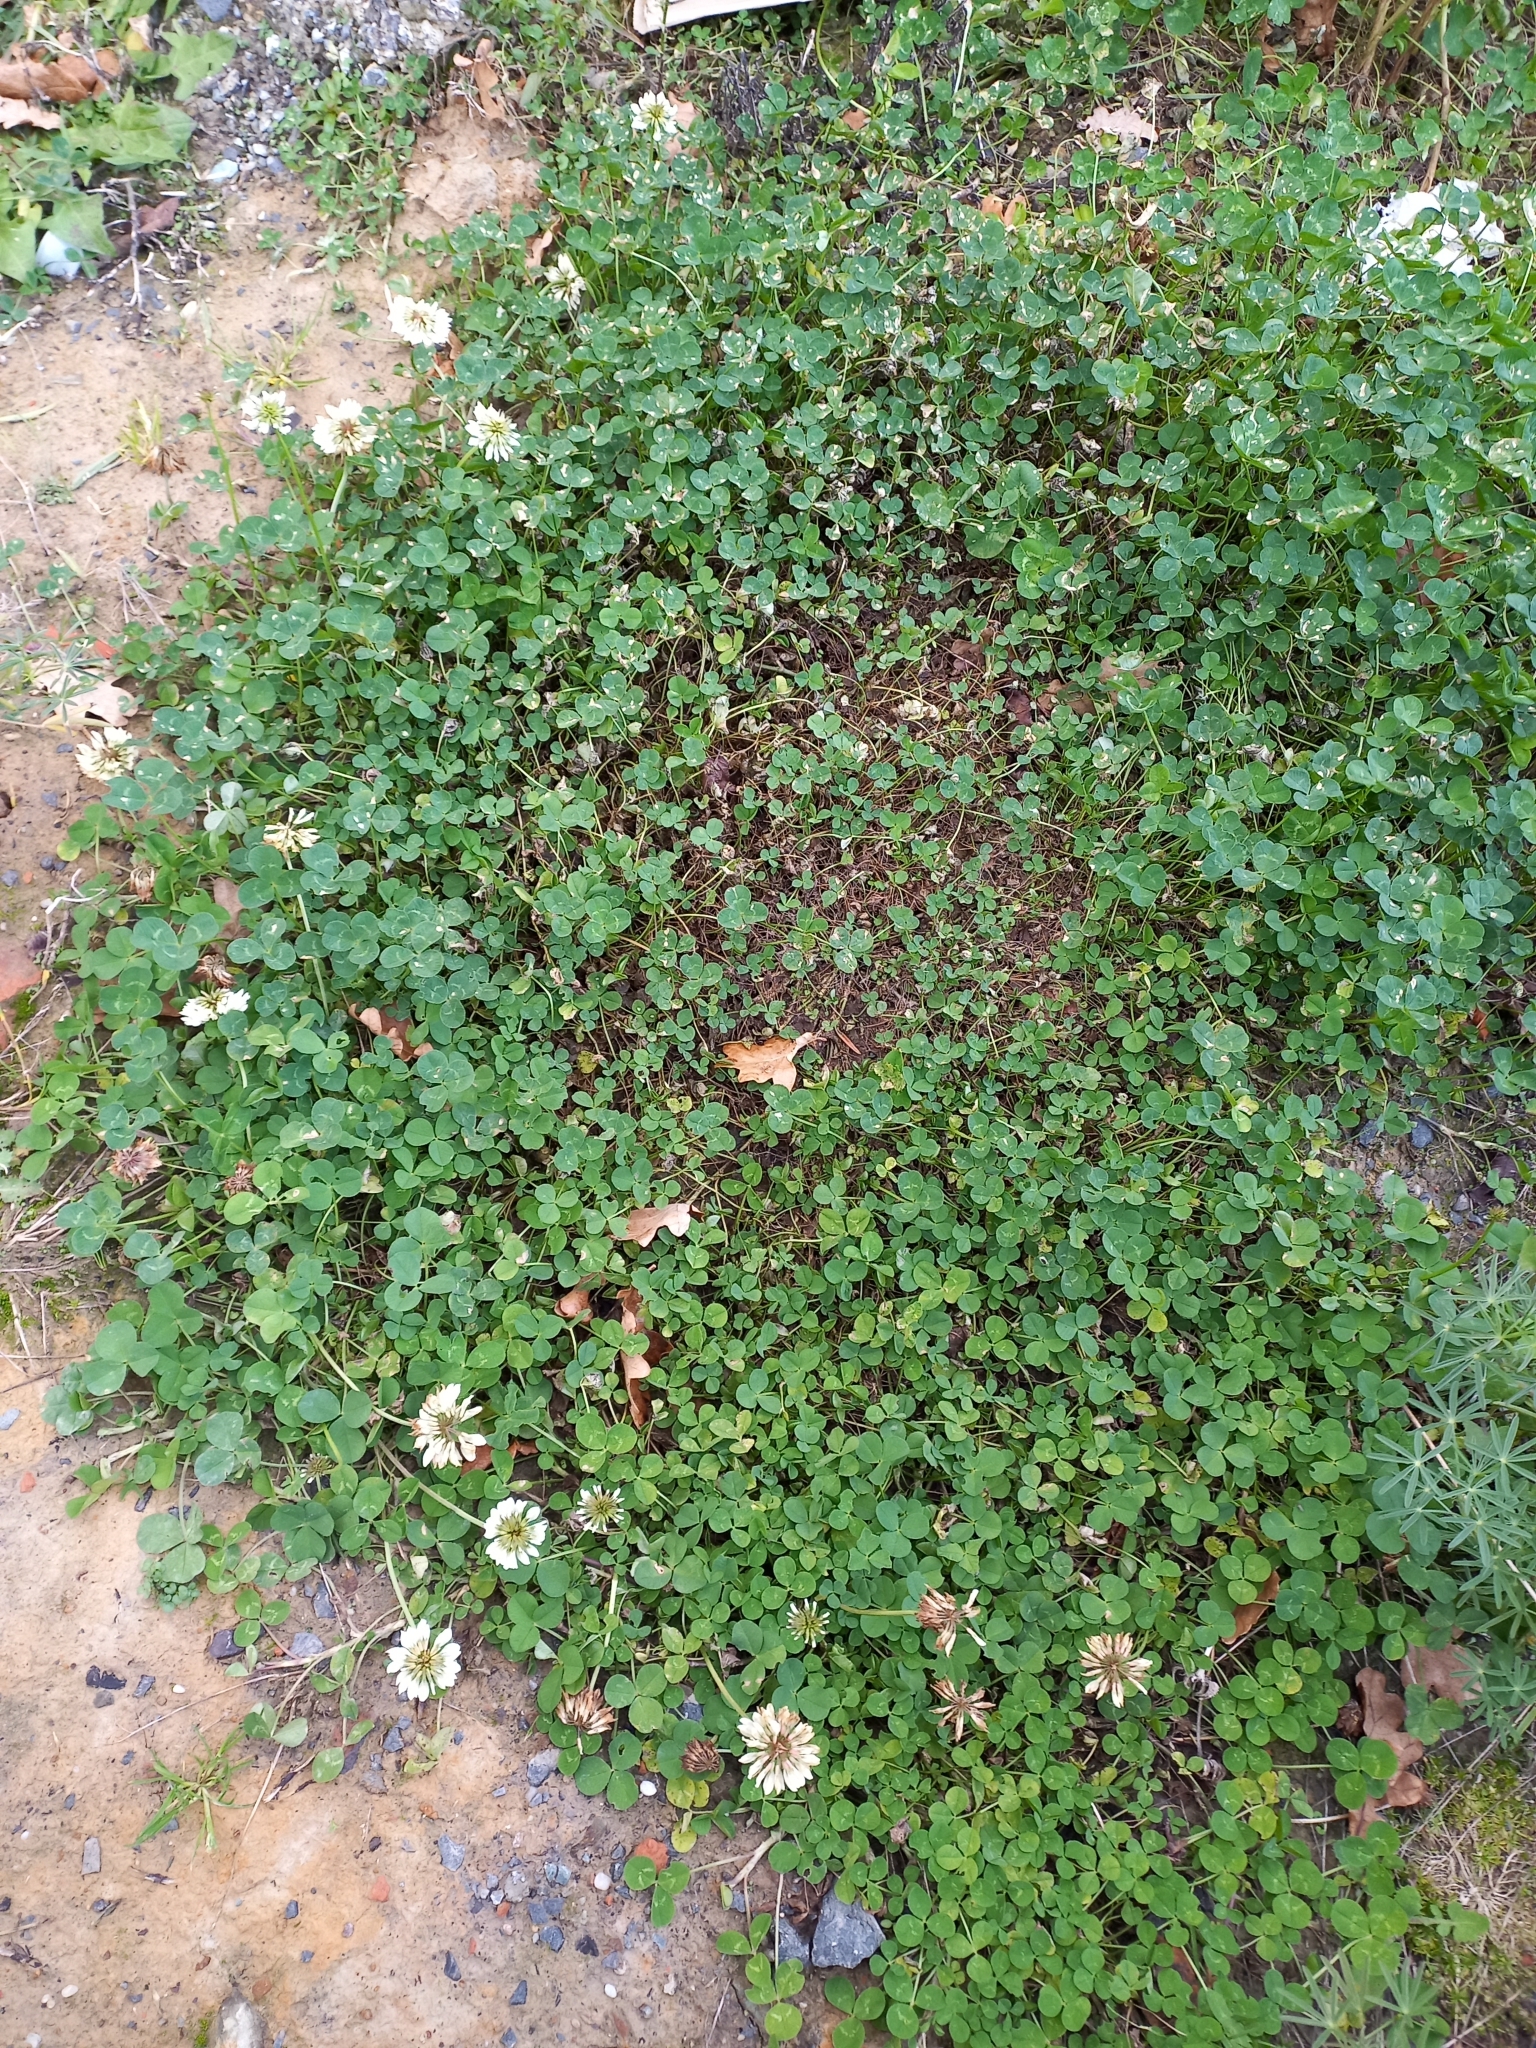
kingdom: Plantae
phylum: Tracheophyta
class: Magnoliopsida
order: Fabales
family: Fabaceae
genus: Trifolium
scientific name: Trifolium repens
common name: White clover
